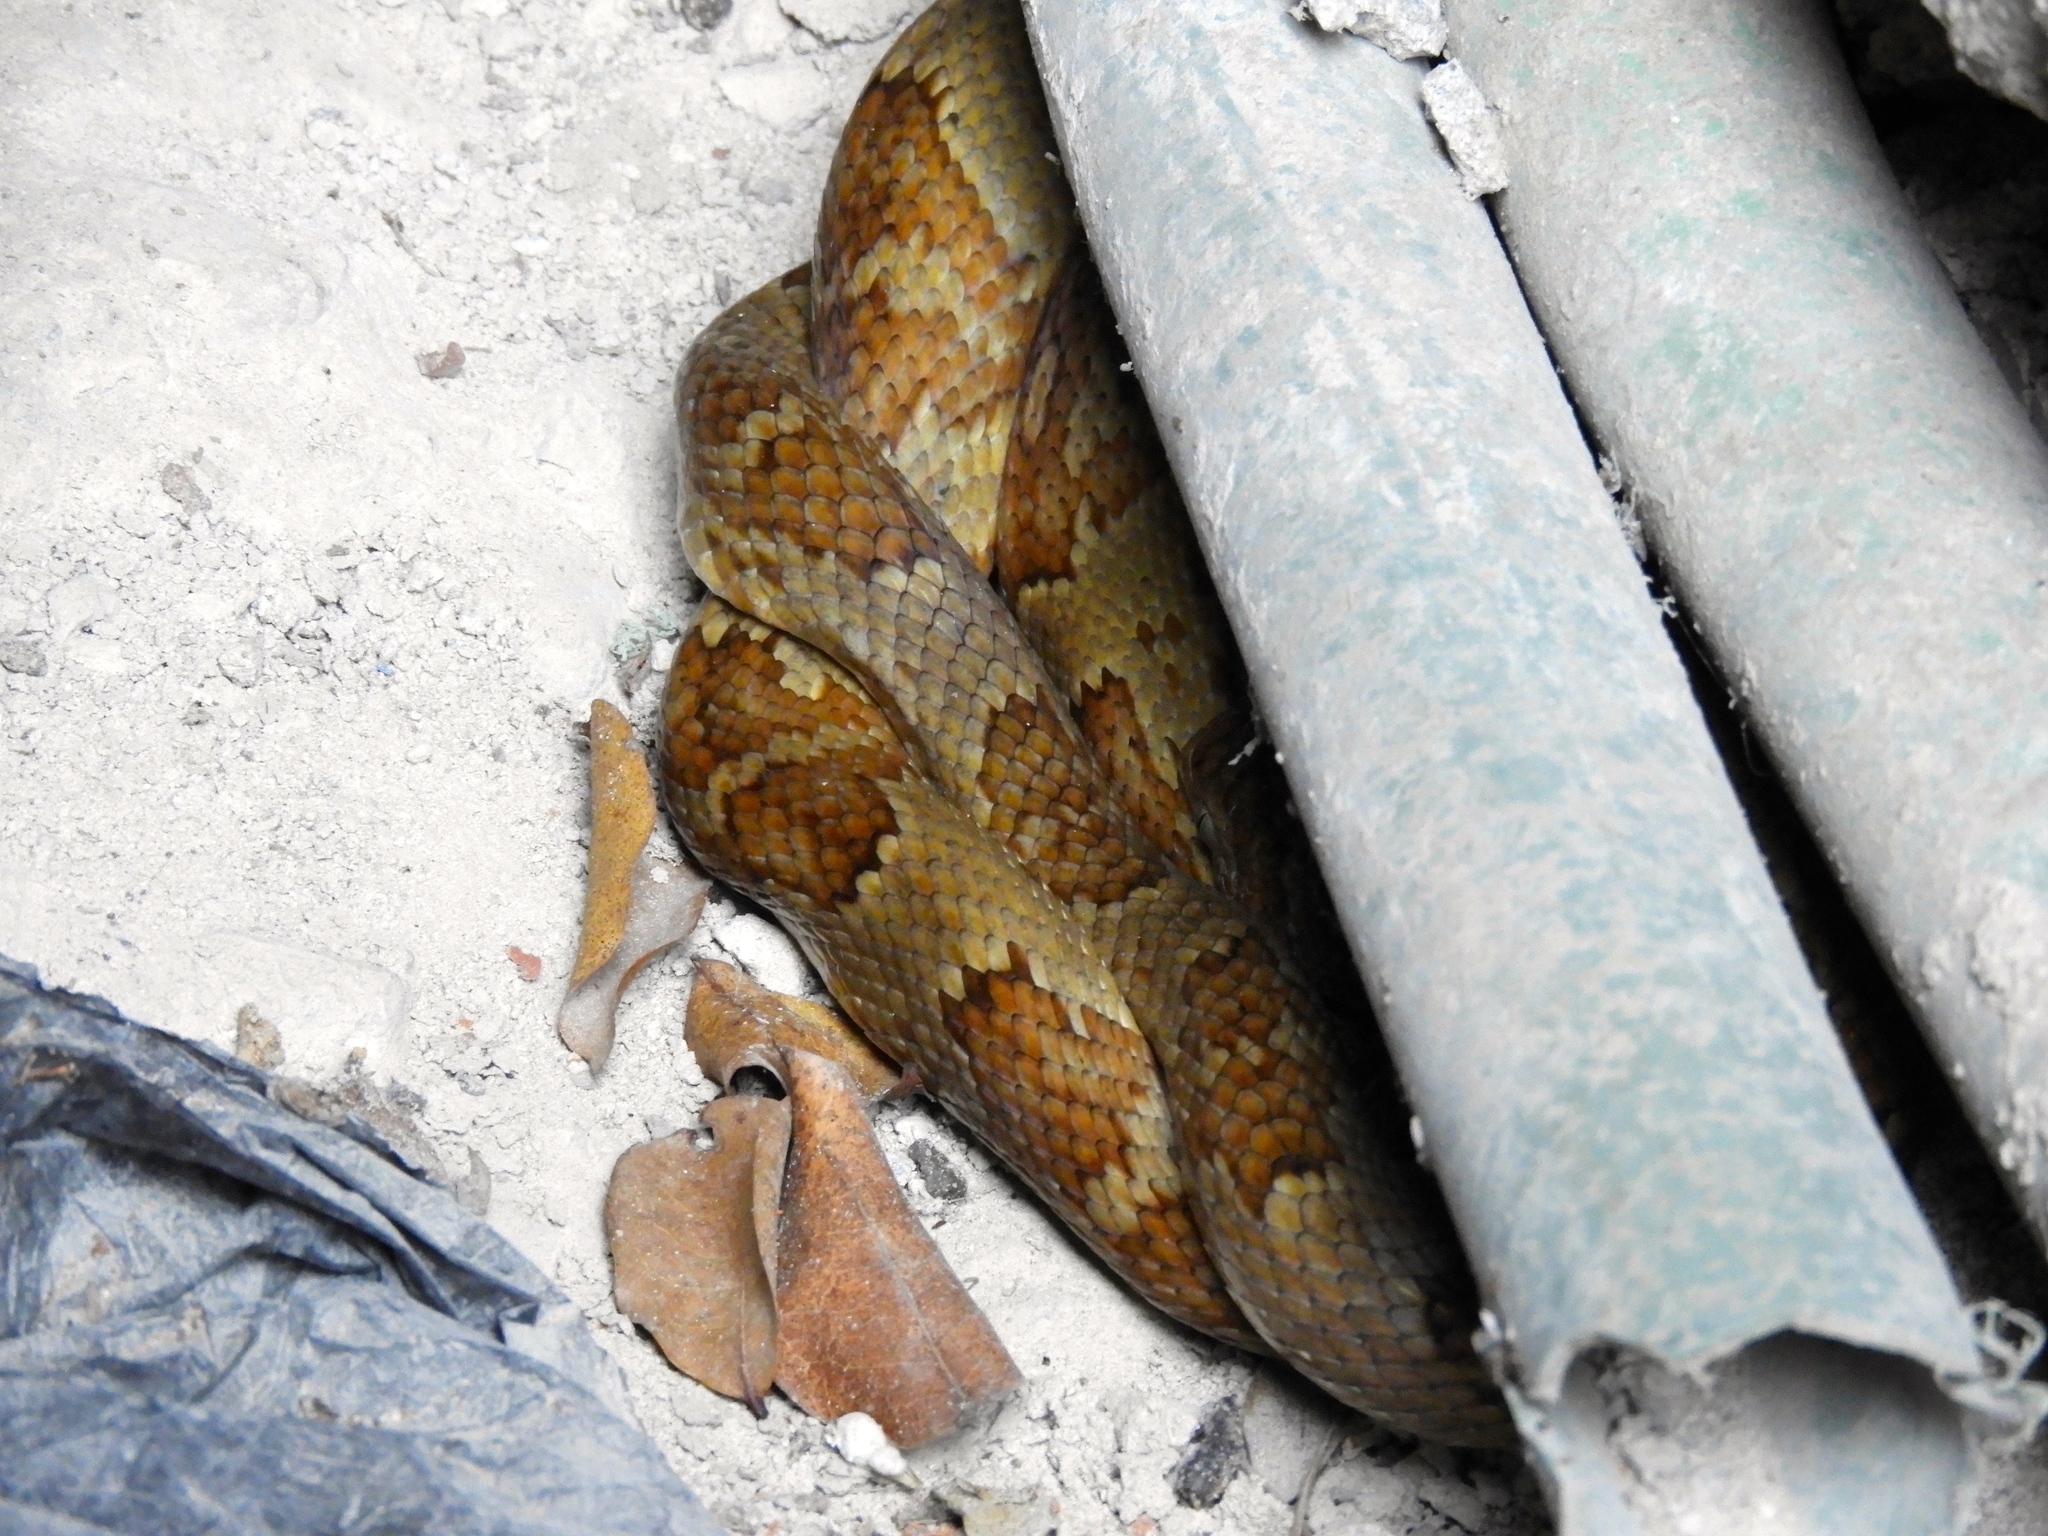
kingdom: Animalia
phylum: Chordata
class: Squamata
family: Colubridae
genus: Trimorphodon
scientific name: Trimorphodon paucimaculatus
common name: Sinaloan lyresnake
